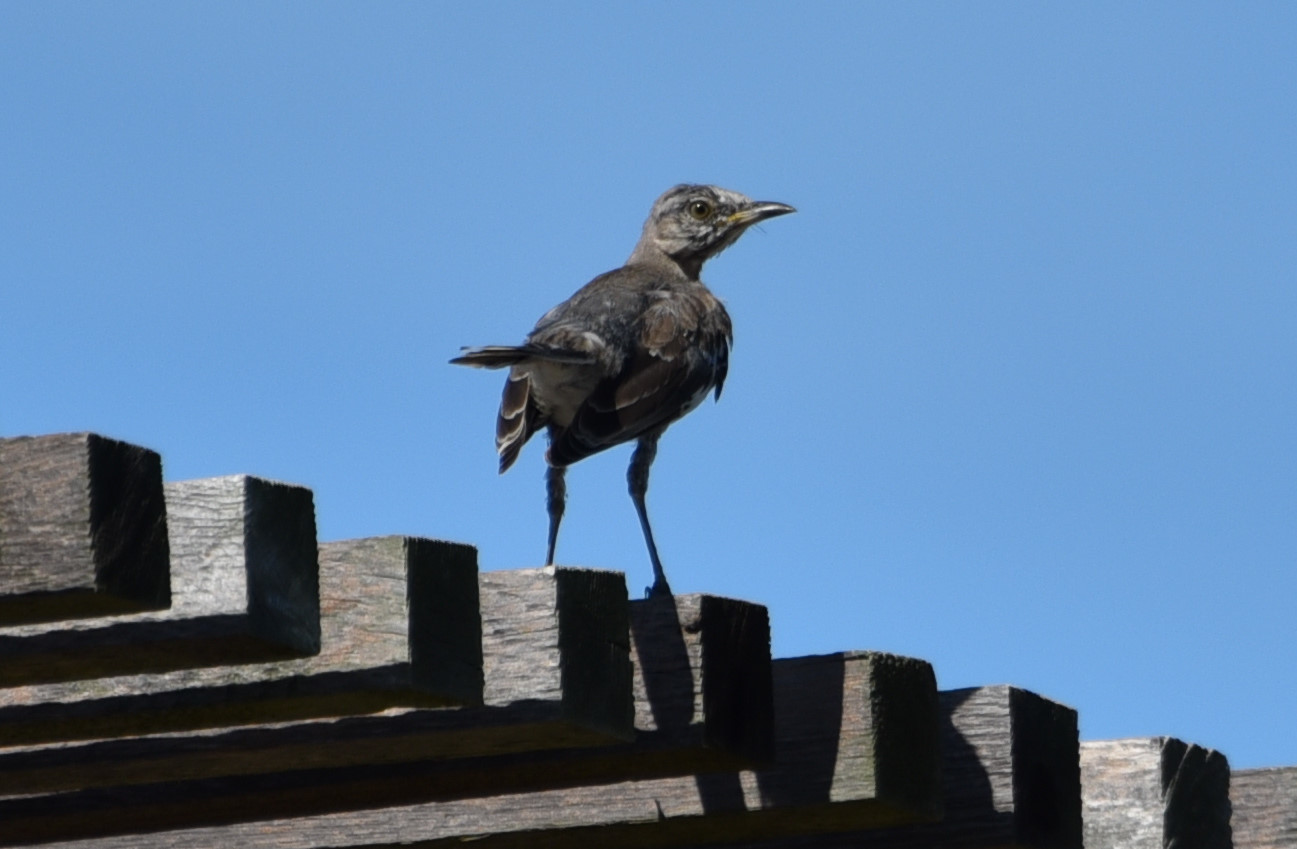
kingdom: Animalia
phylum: Chordata
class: Aves
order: Passeriformes
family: Mimidae
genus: Mimus
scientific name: Mimus polyglottos
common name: Northern mockingbird
